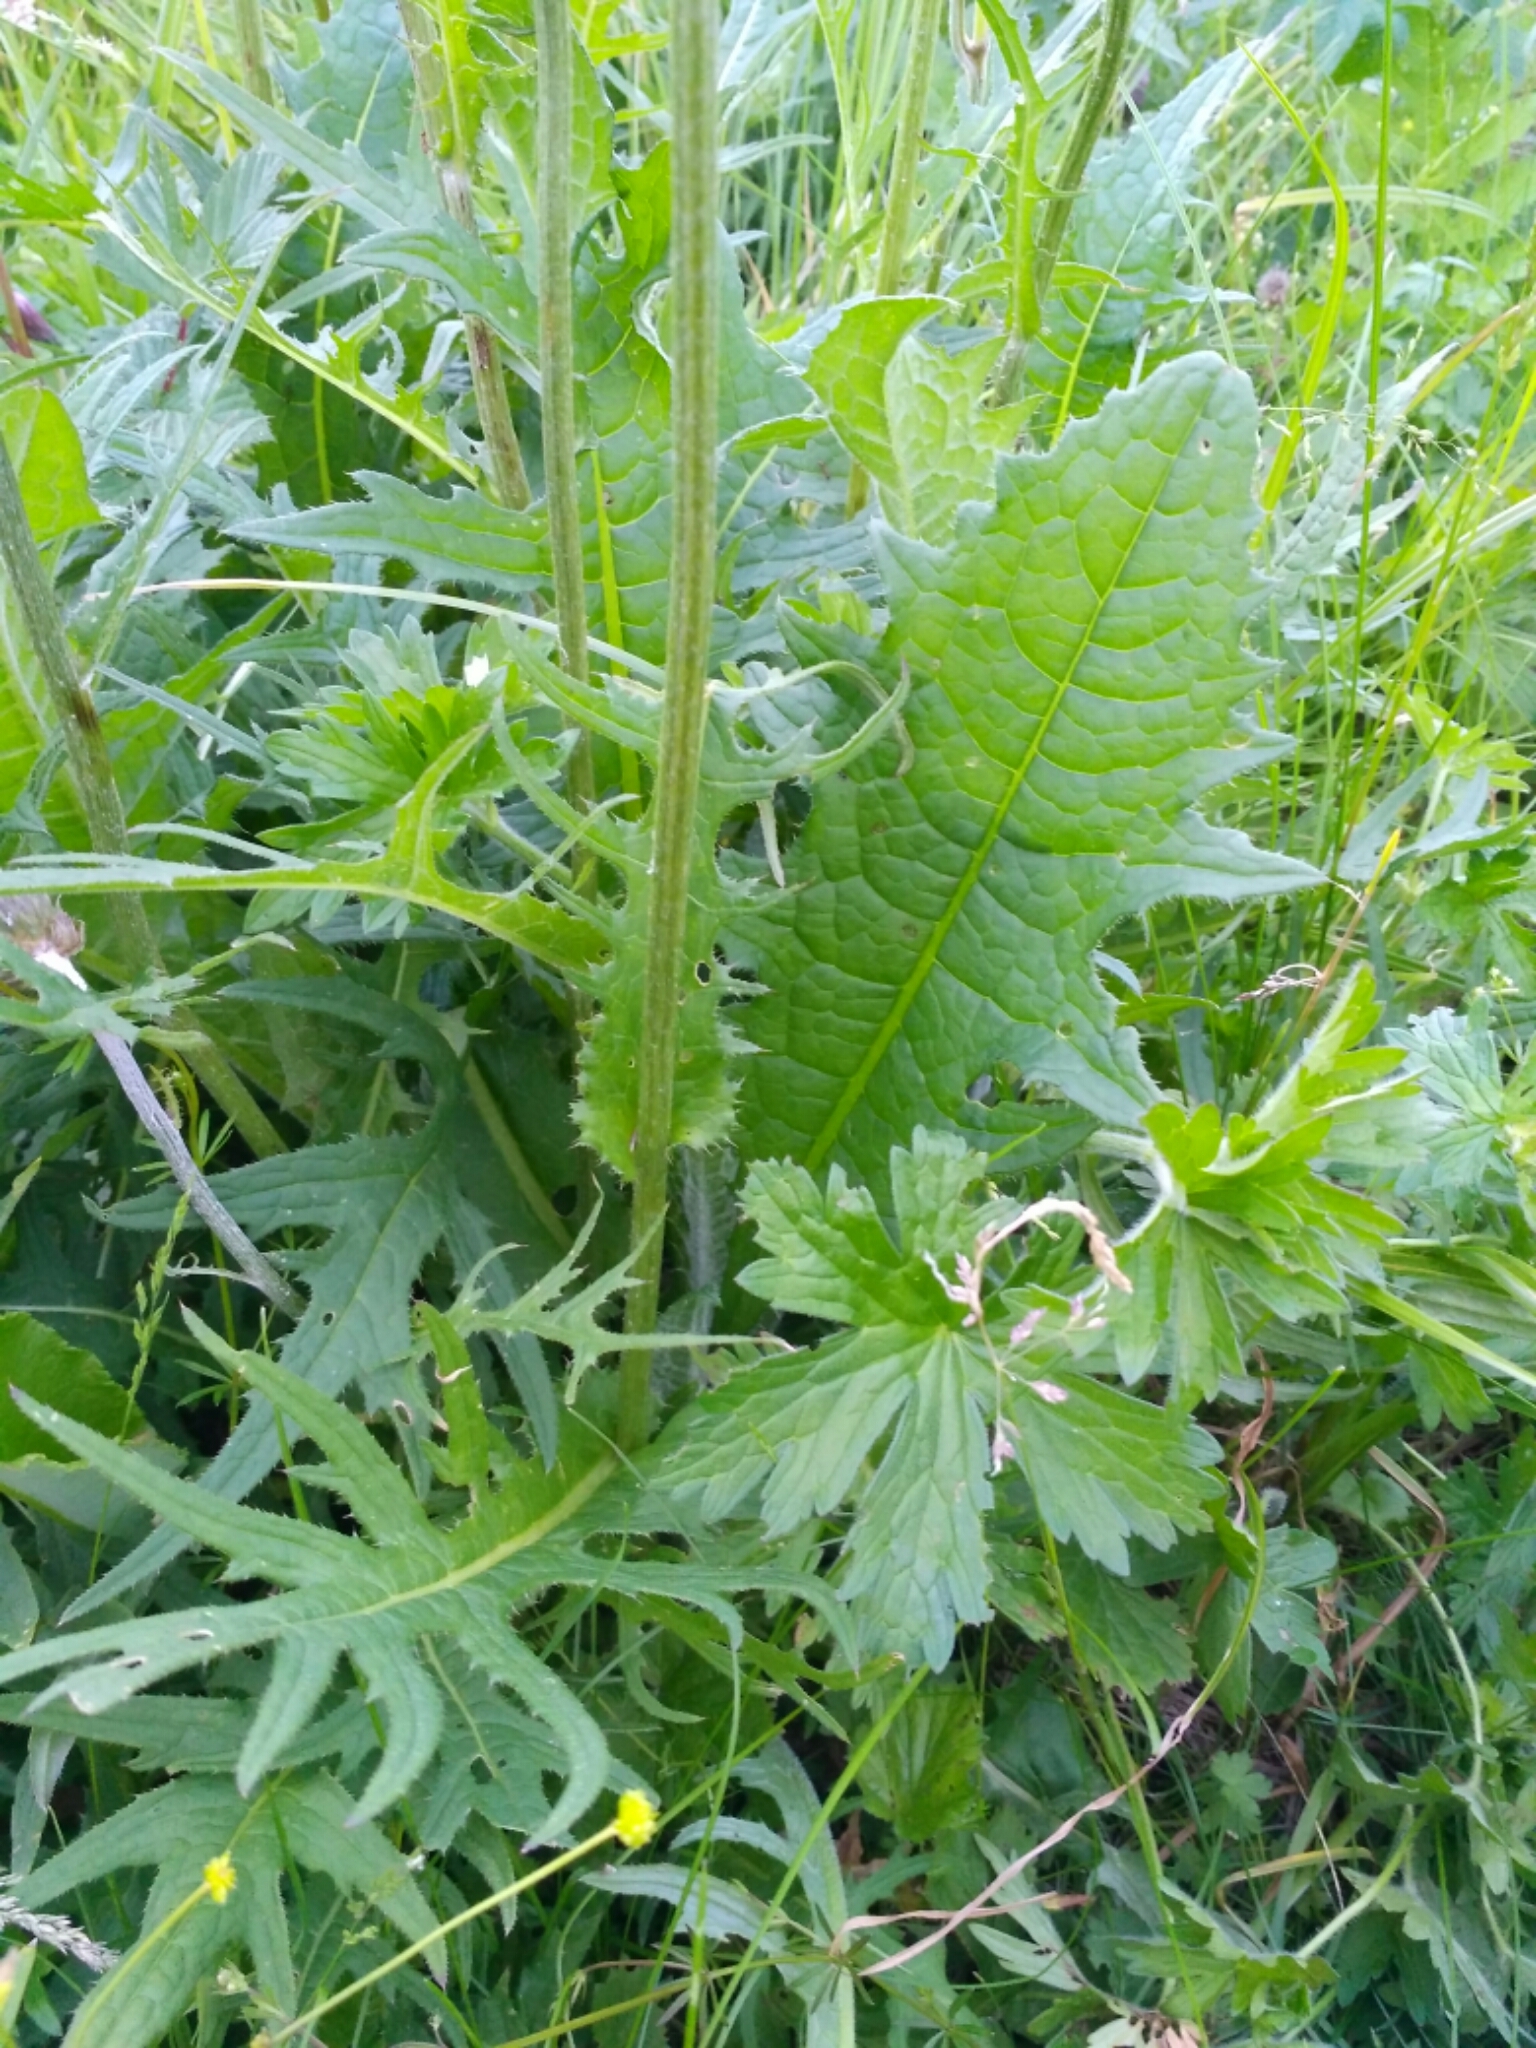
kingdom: Plantae
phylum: Tracheophyta
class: Magnoliopsida
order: Asterales
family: Asteraceae
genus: Cirsium
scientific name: Cirsium rivulare
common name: Brook thistle
